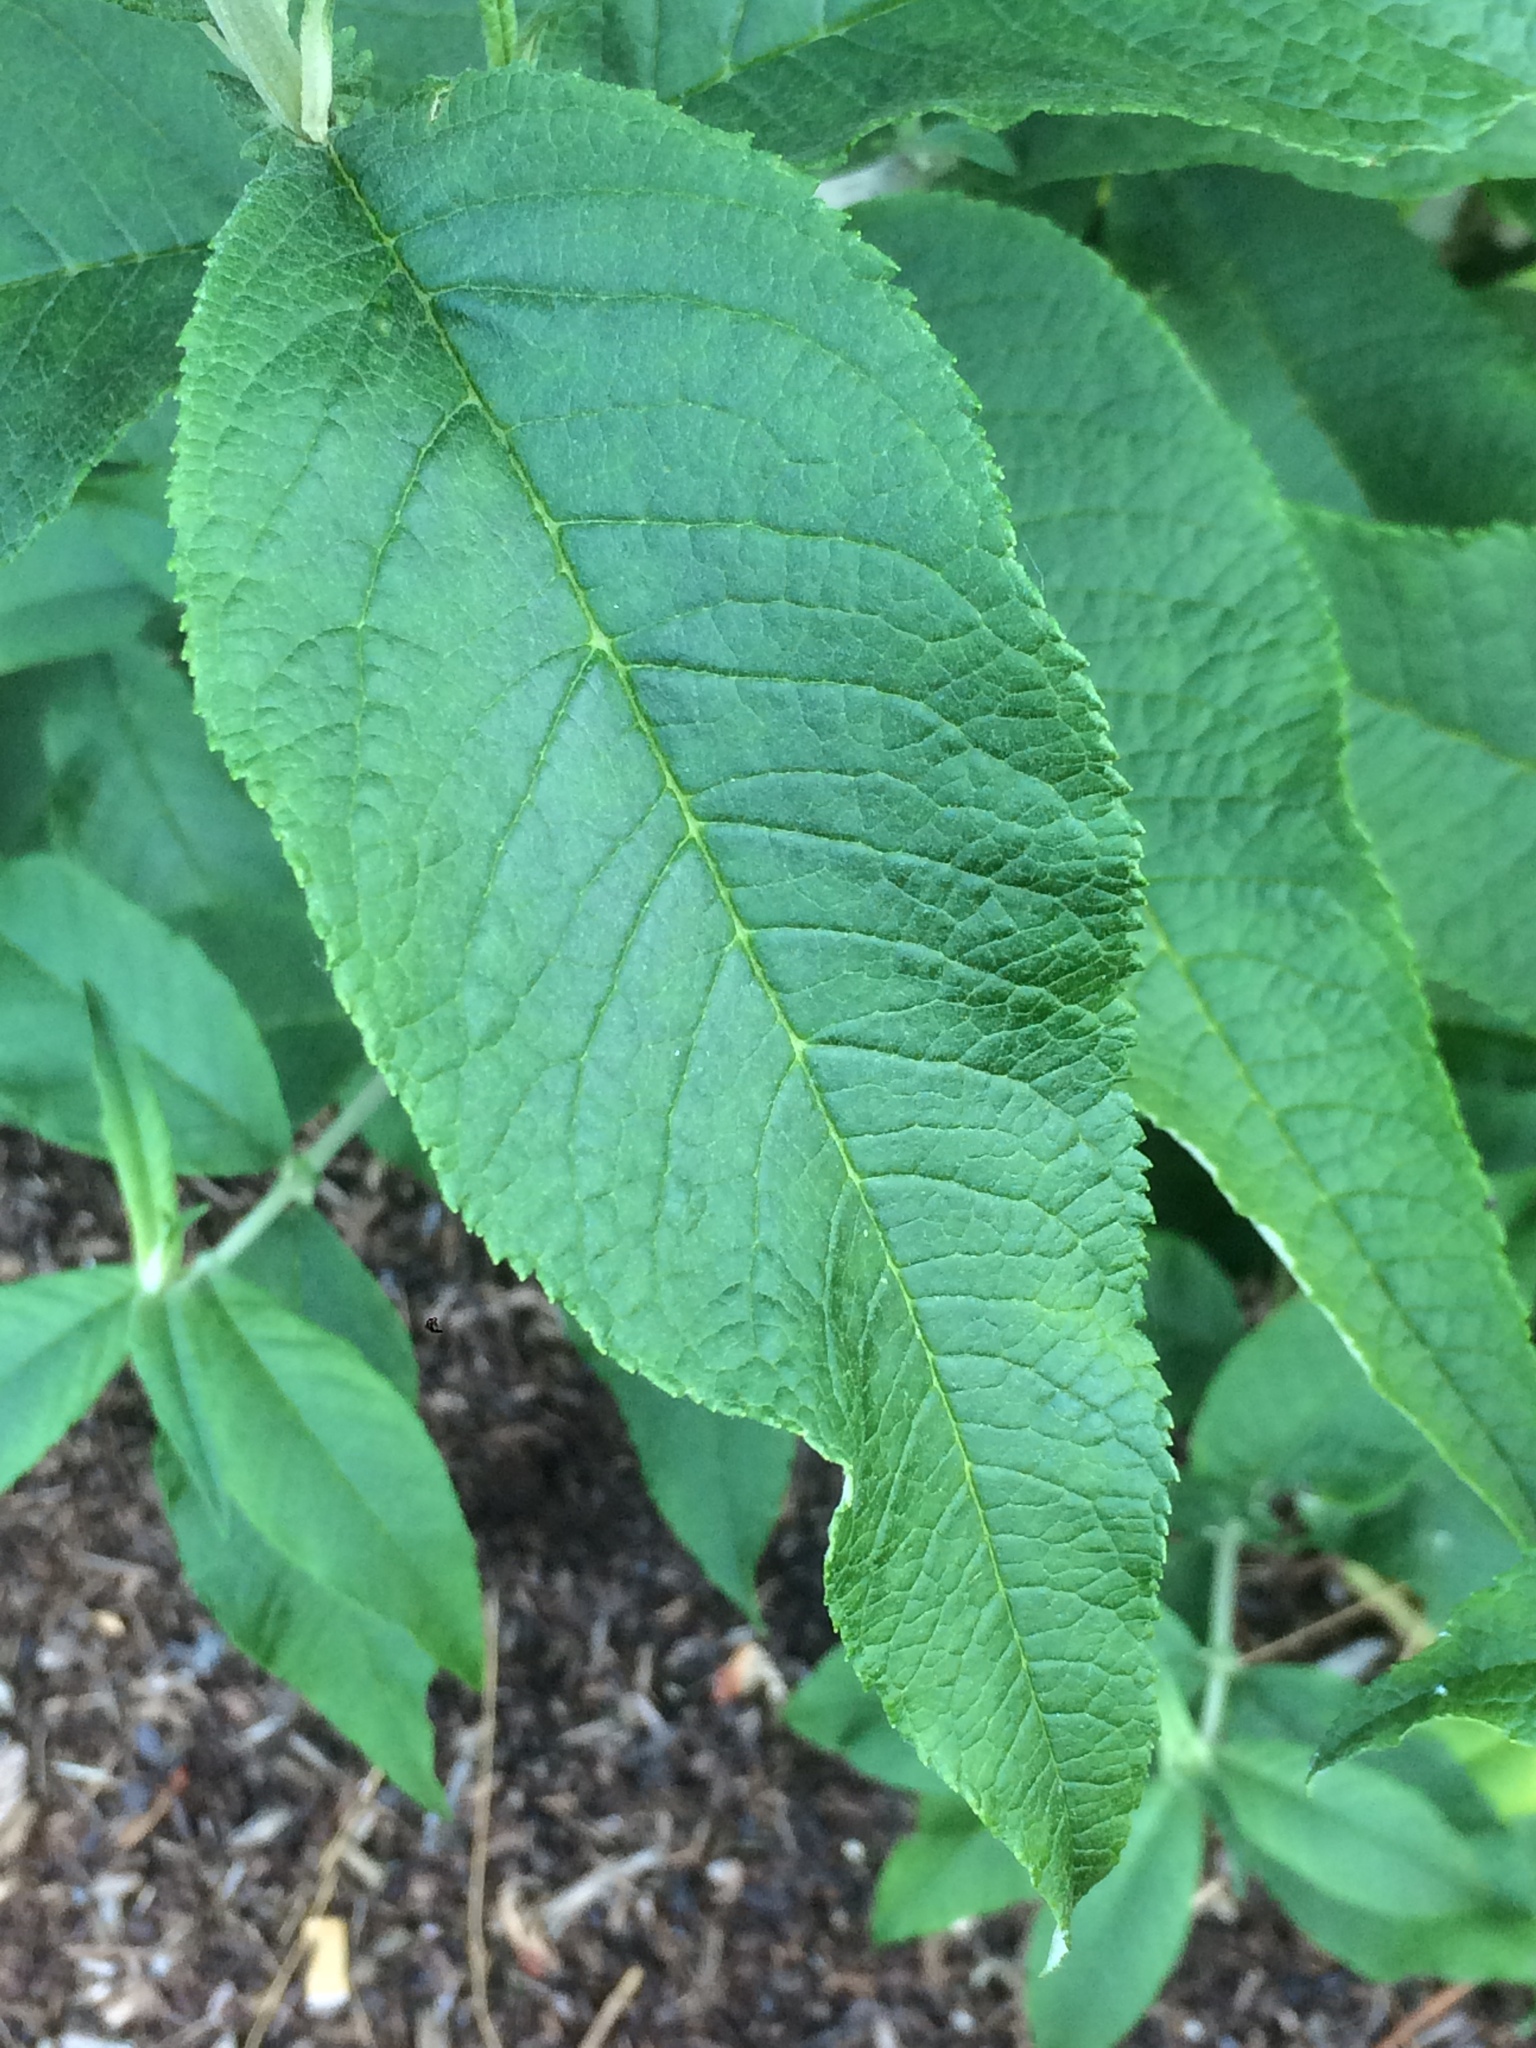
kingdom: Plantae
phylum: Tracheophyta
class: Magnoliopsida
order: Lamiales
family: Scrophulariaceae
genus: Buddleja
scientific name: Buddleja davidii
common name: Butterfly-bush
